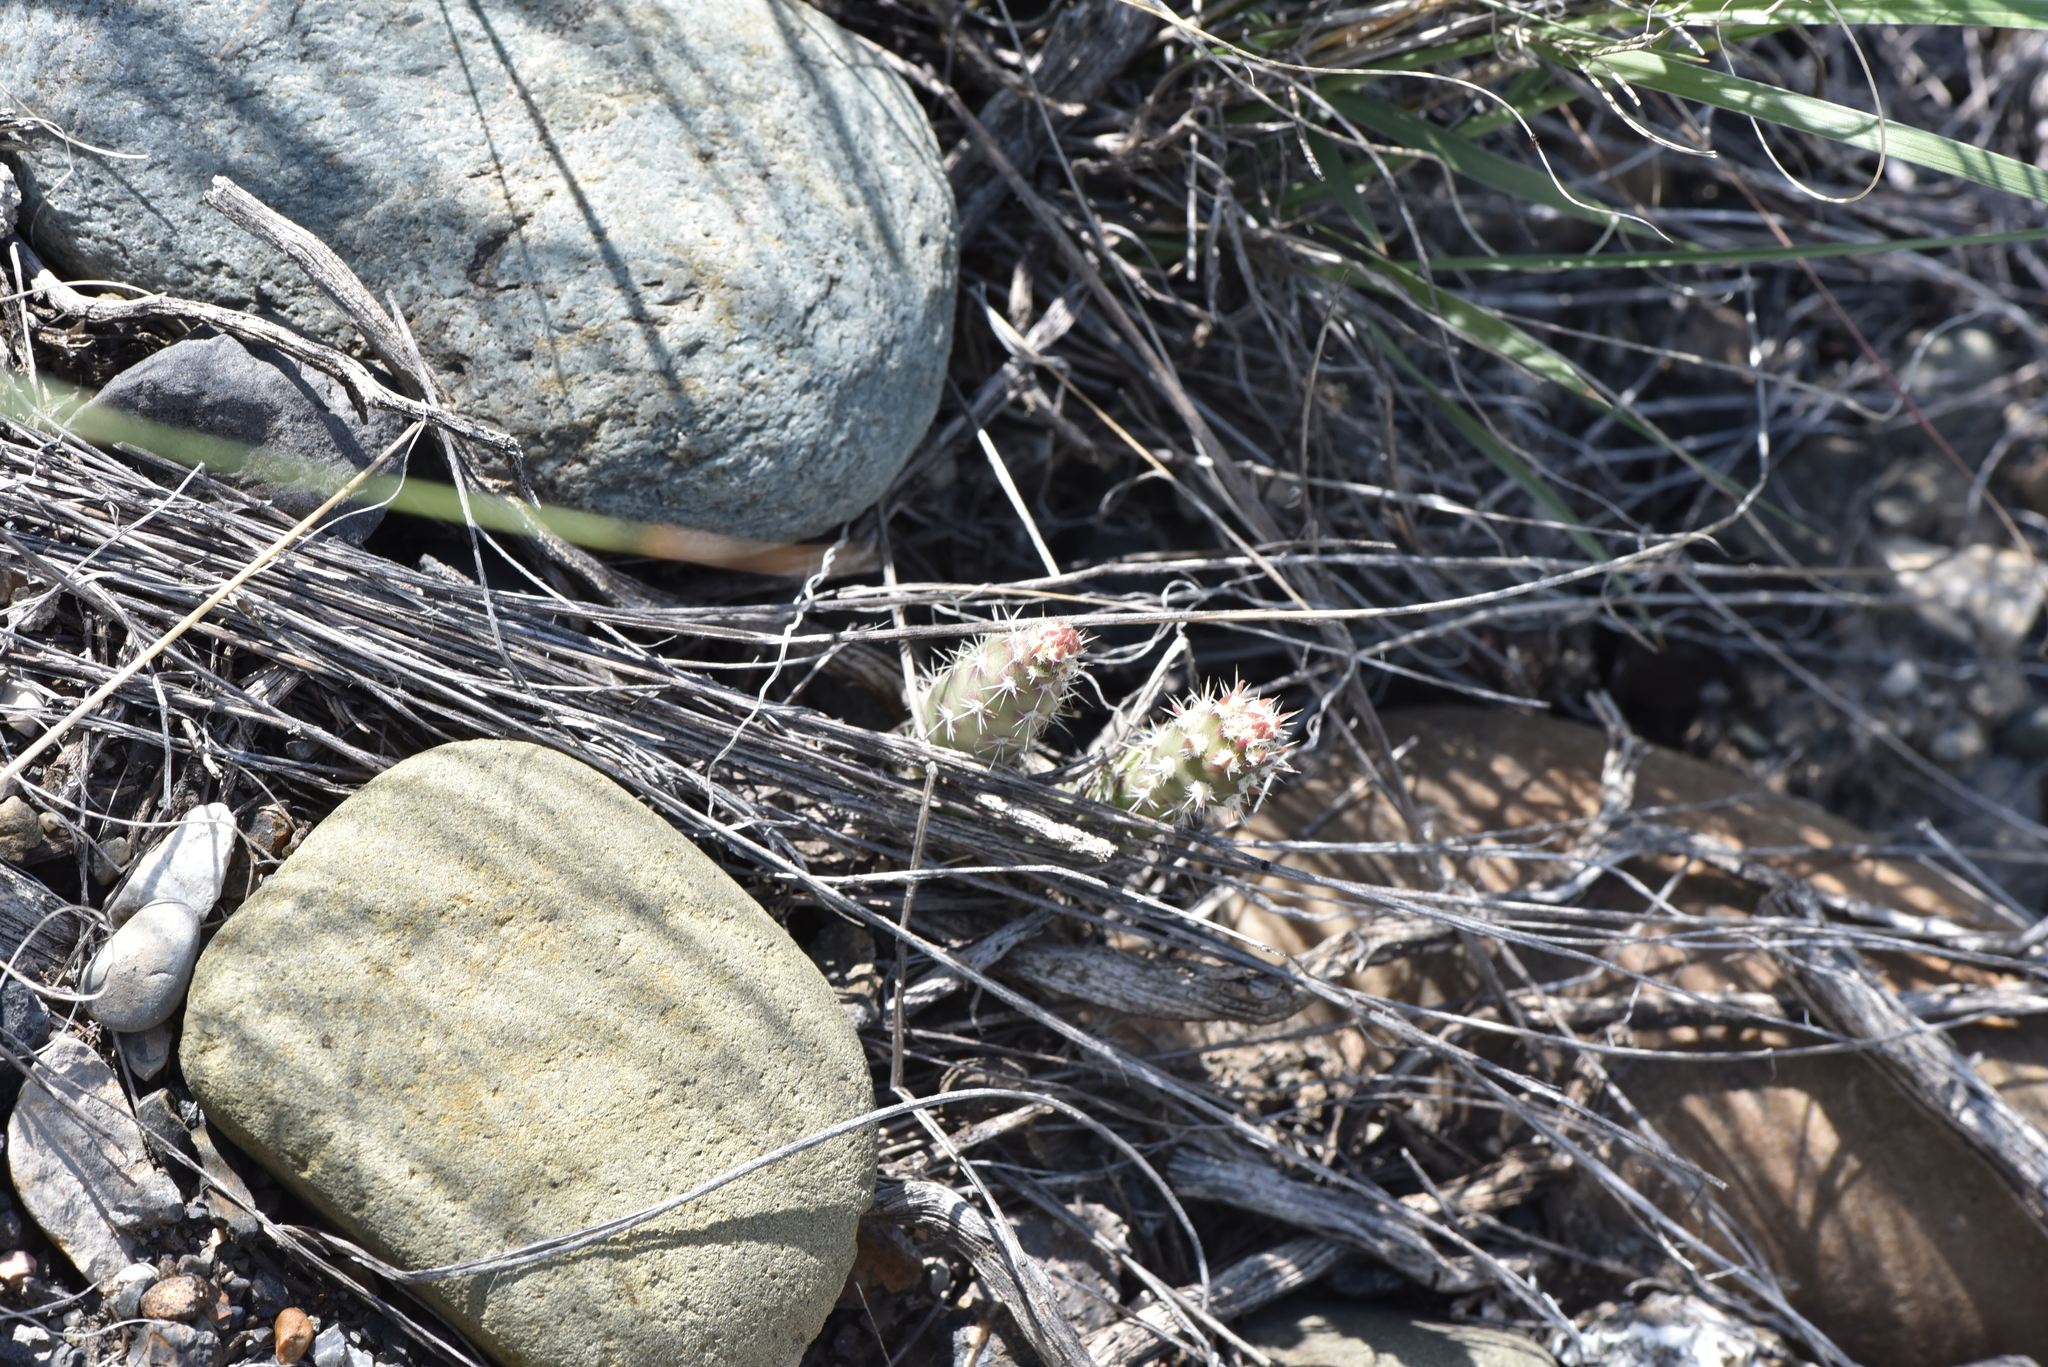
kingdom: Plantae
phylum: Tracheophyta
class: Magnoliopsida
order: Caryophyllales
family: Cactaceae
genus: Opuntia
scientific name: Opuntia fragilis
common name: Brittle cactus
